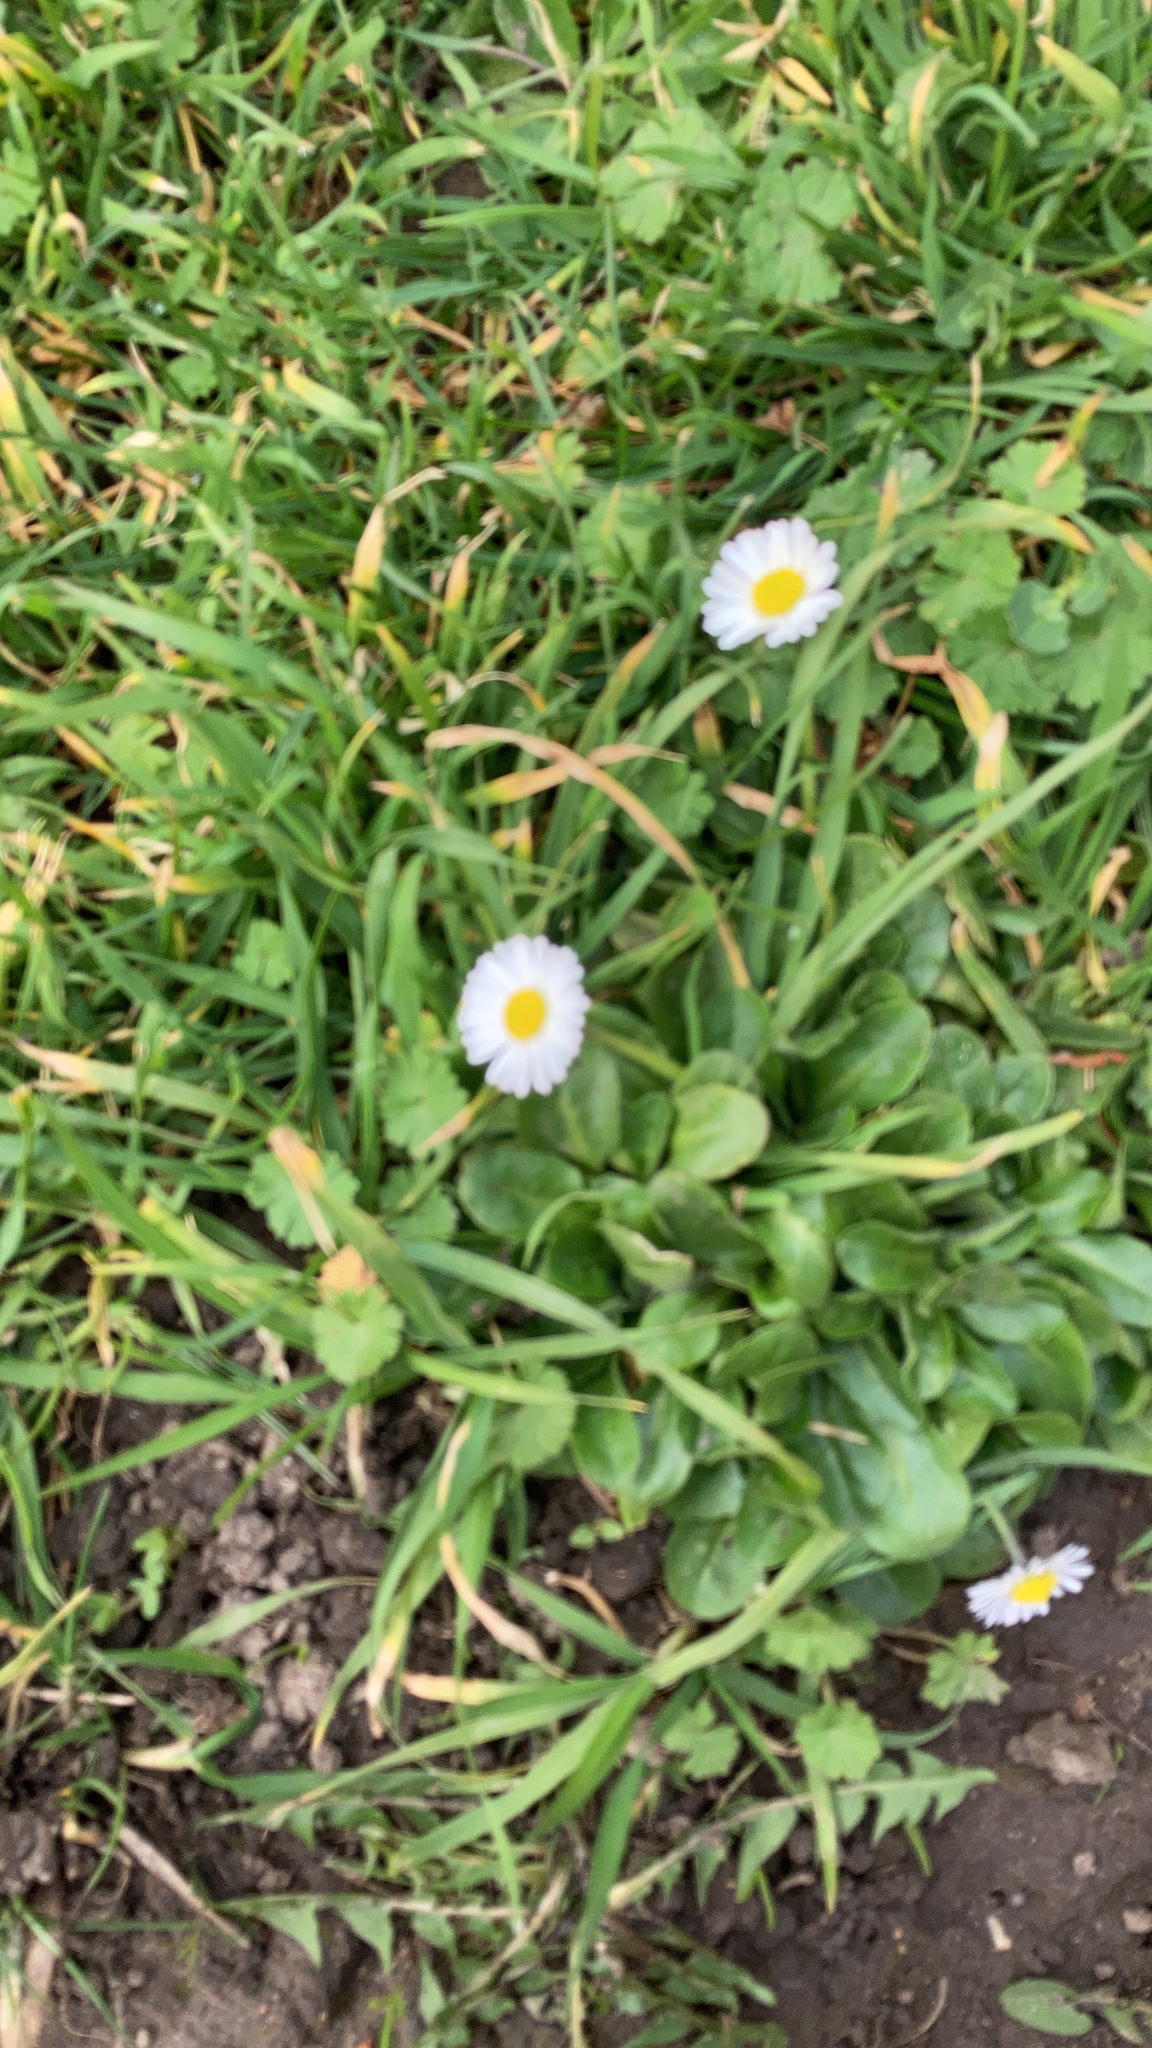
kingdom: Plantae
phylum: Tracheophyta
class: Magnoliopsida
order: Asterales
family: Asteraceae
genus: Bellis
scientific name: Bellis perennis
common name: Lawndaisy
